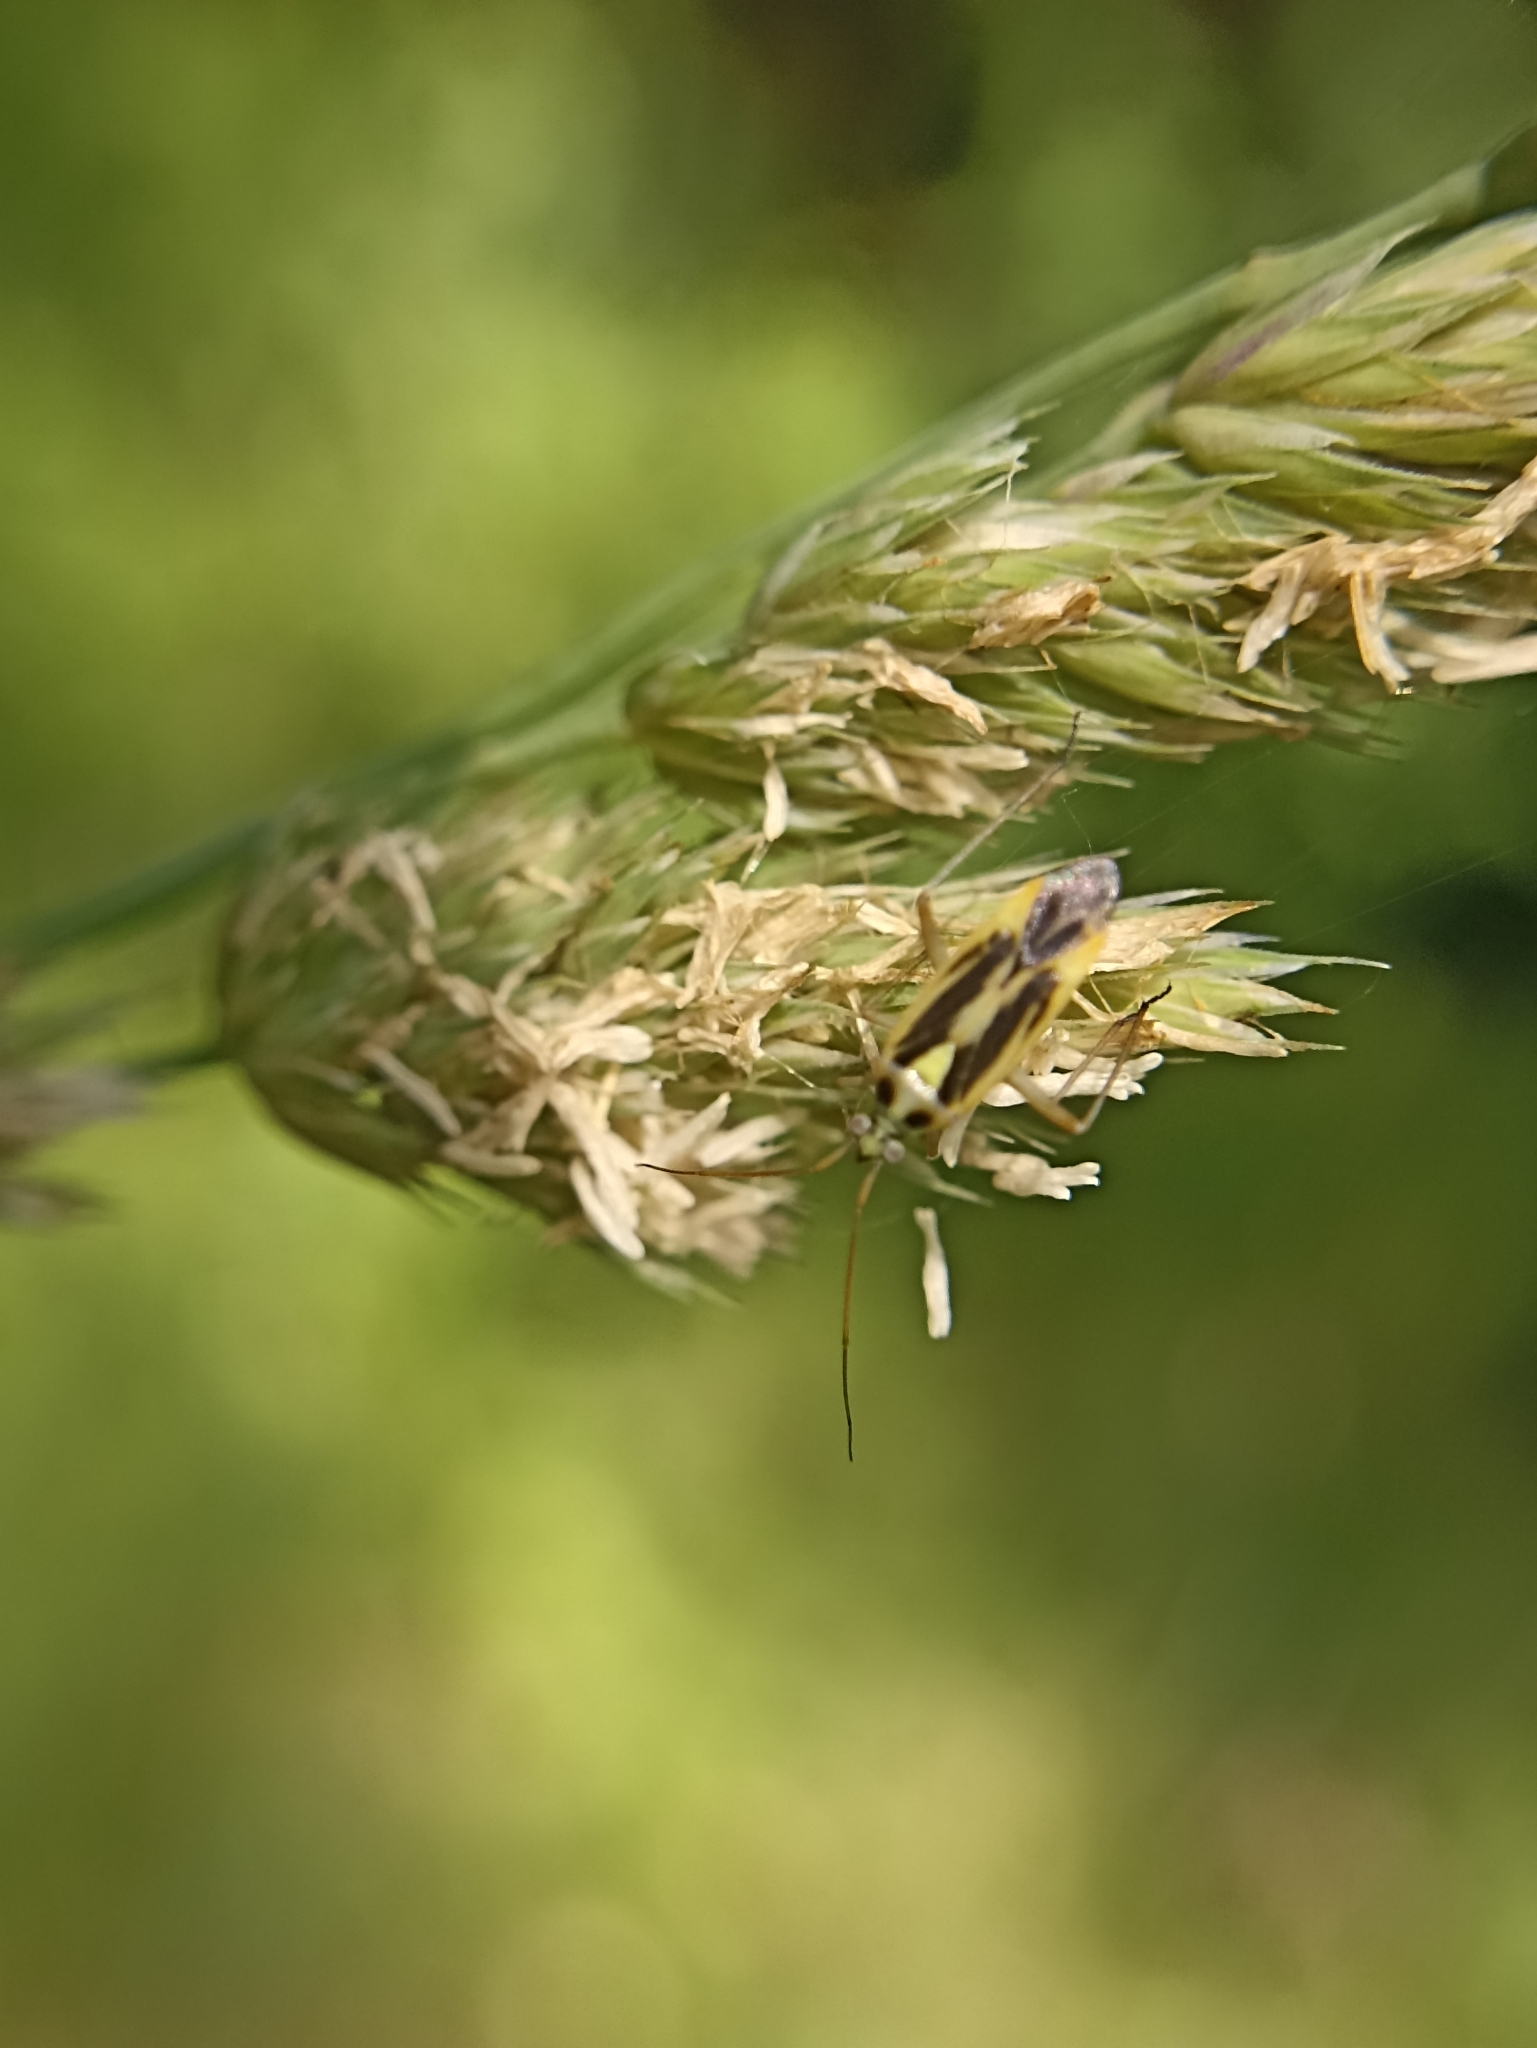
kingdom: Animalia
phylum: Arthropoda
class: Insecta
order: Hemiptera
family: Miridae
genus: Stenotus
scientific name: Stenotus binotatus
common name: Plant bug
